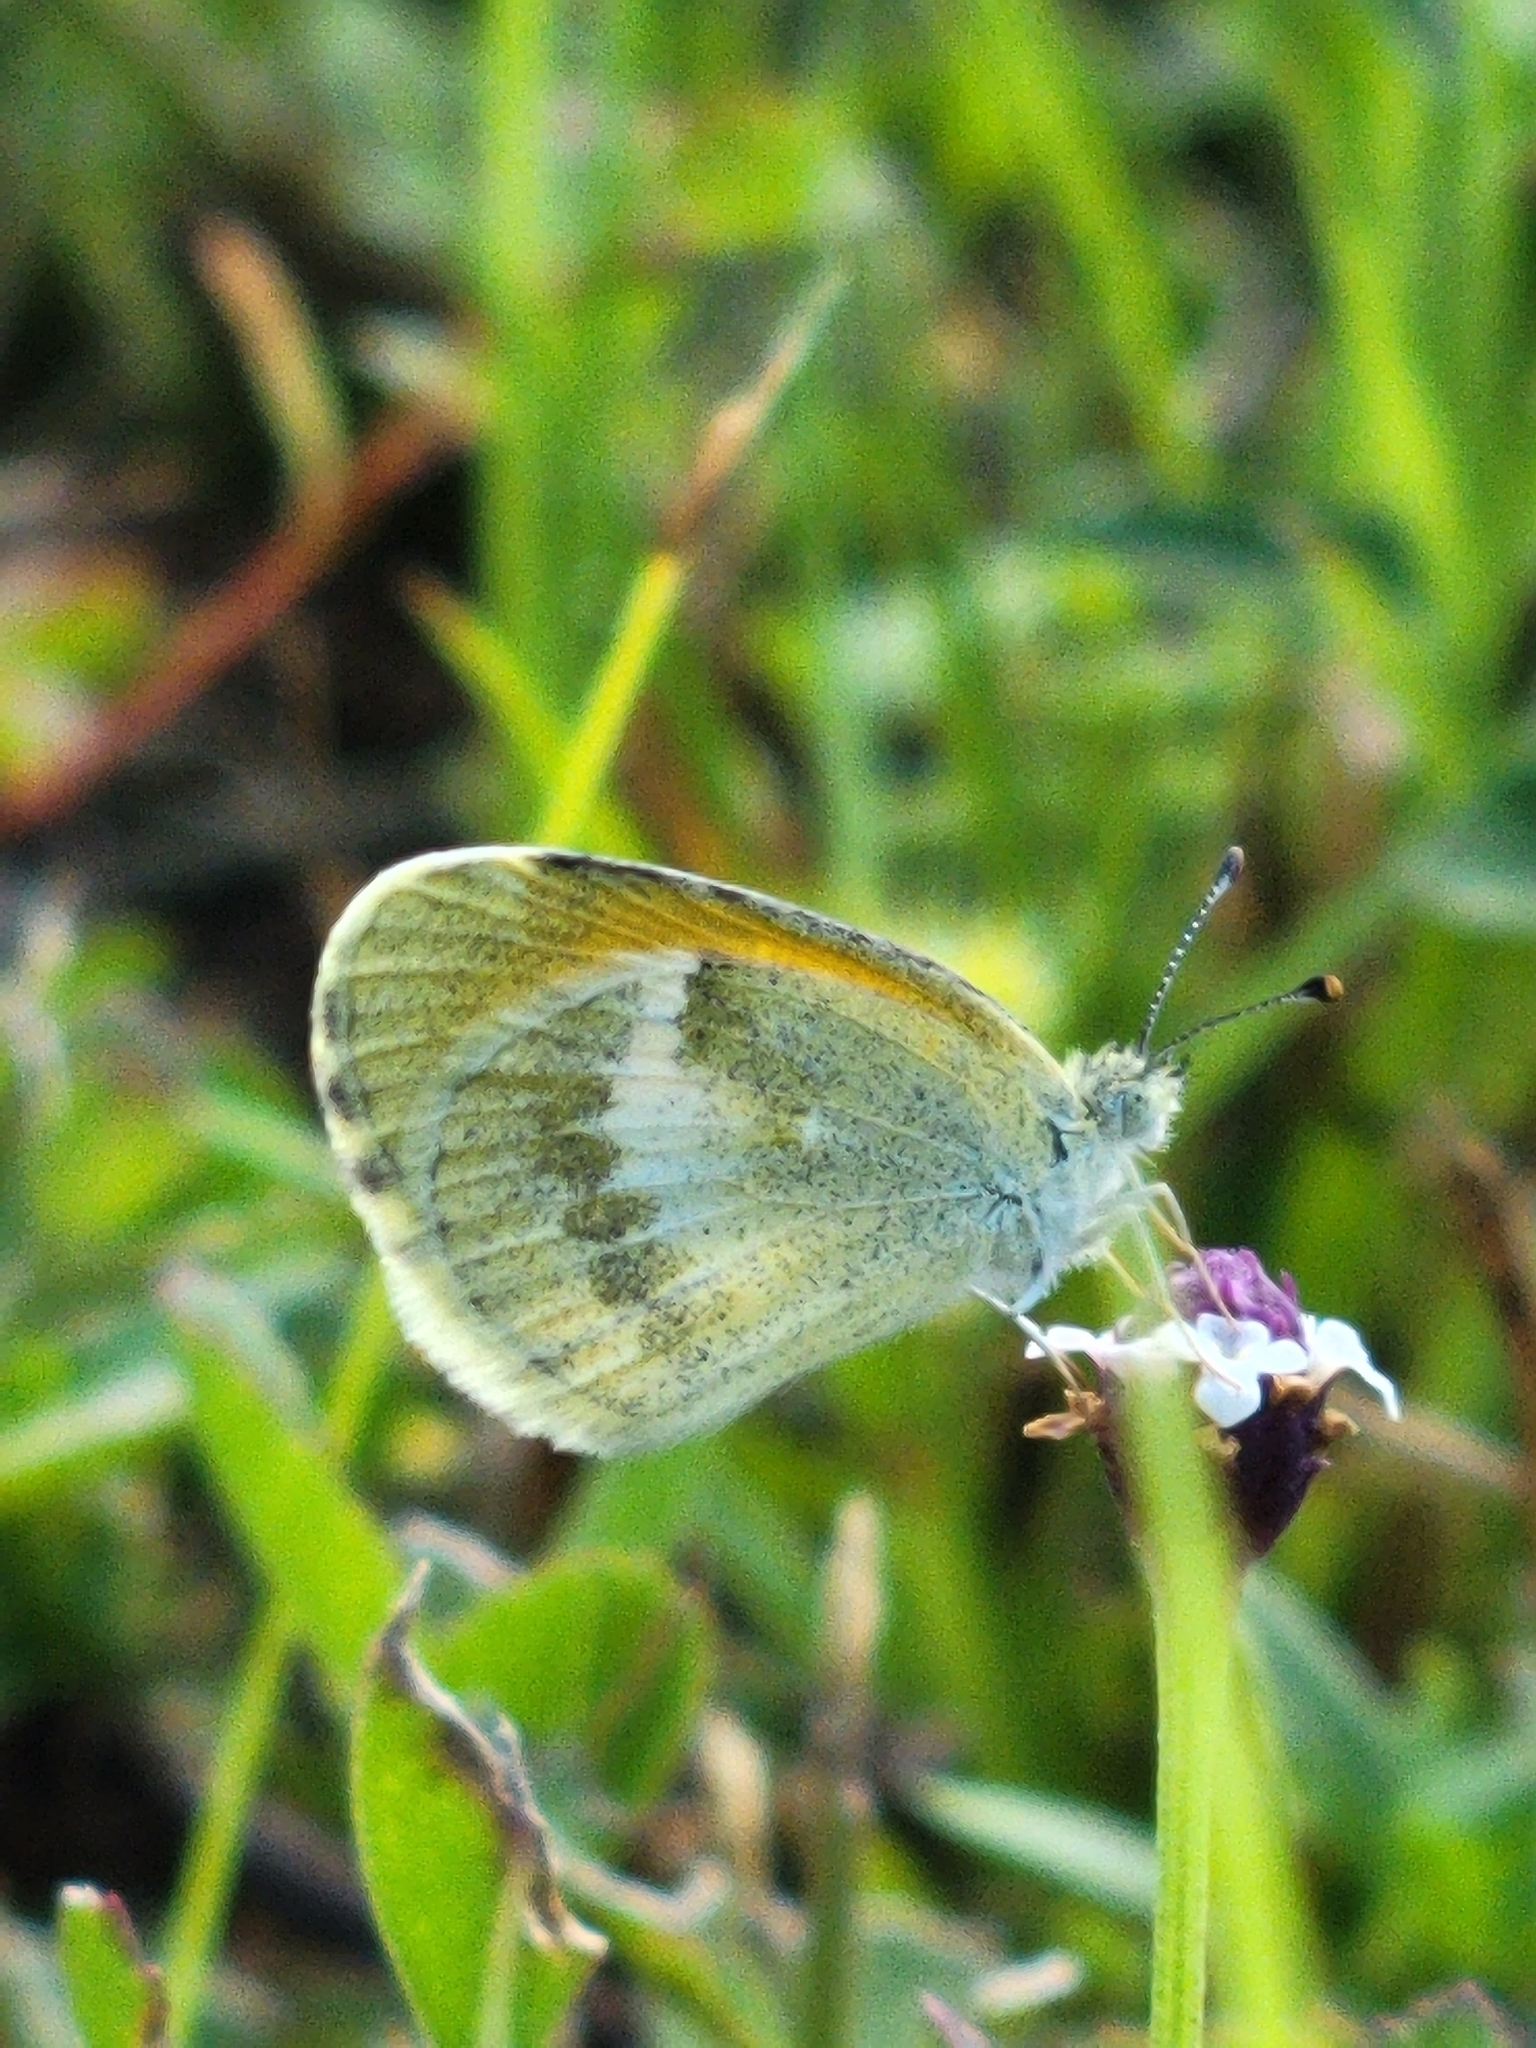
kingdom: Animalia
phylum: Arthropoda
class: Insecta
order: Lepidoptera
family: Pieridae
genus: Nathalis
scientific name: Nathalis iole
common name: Dainty sulphur
